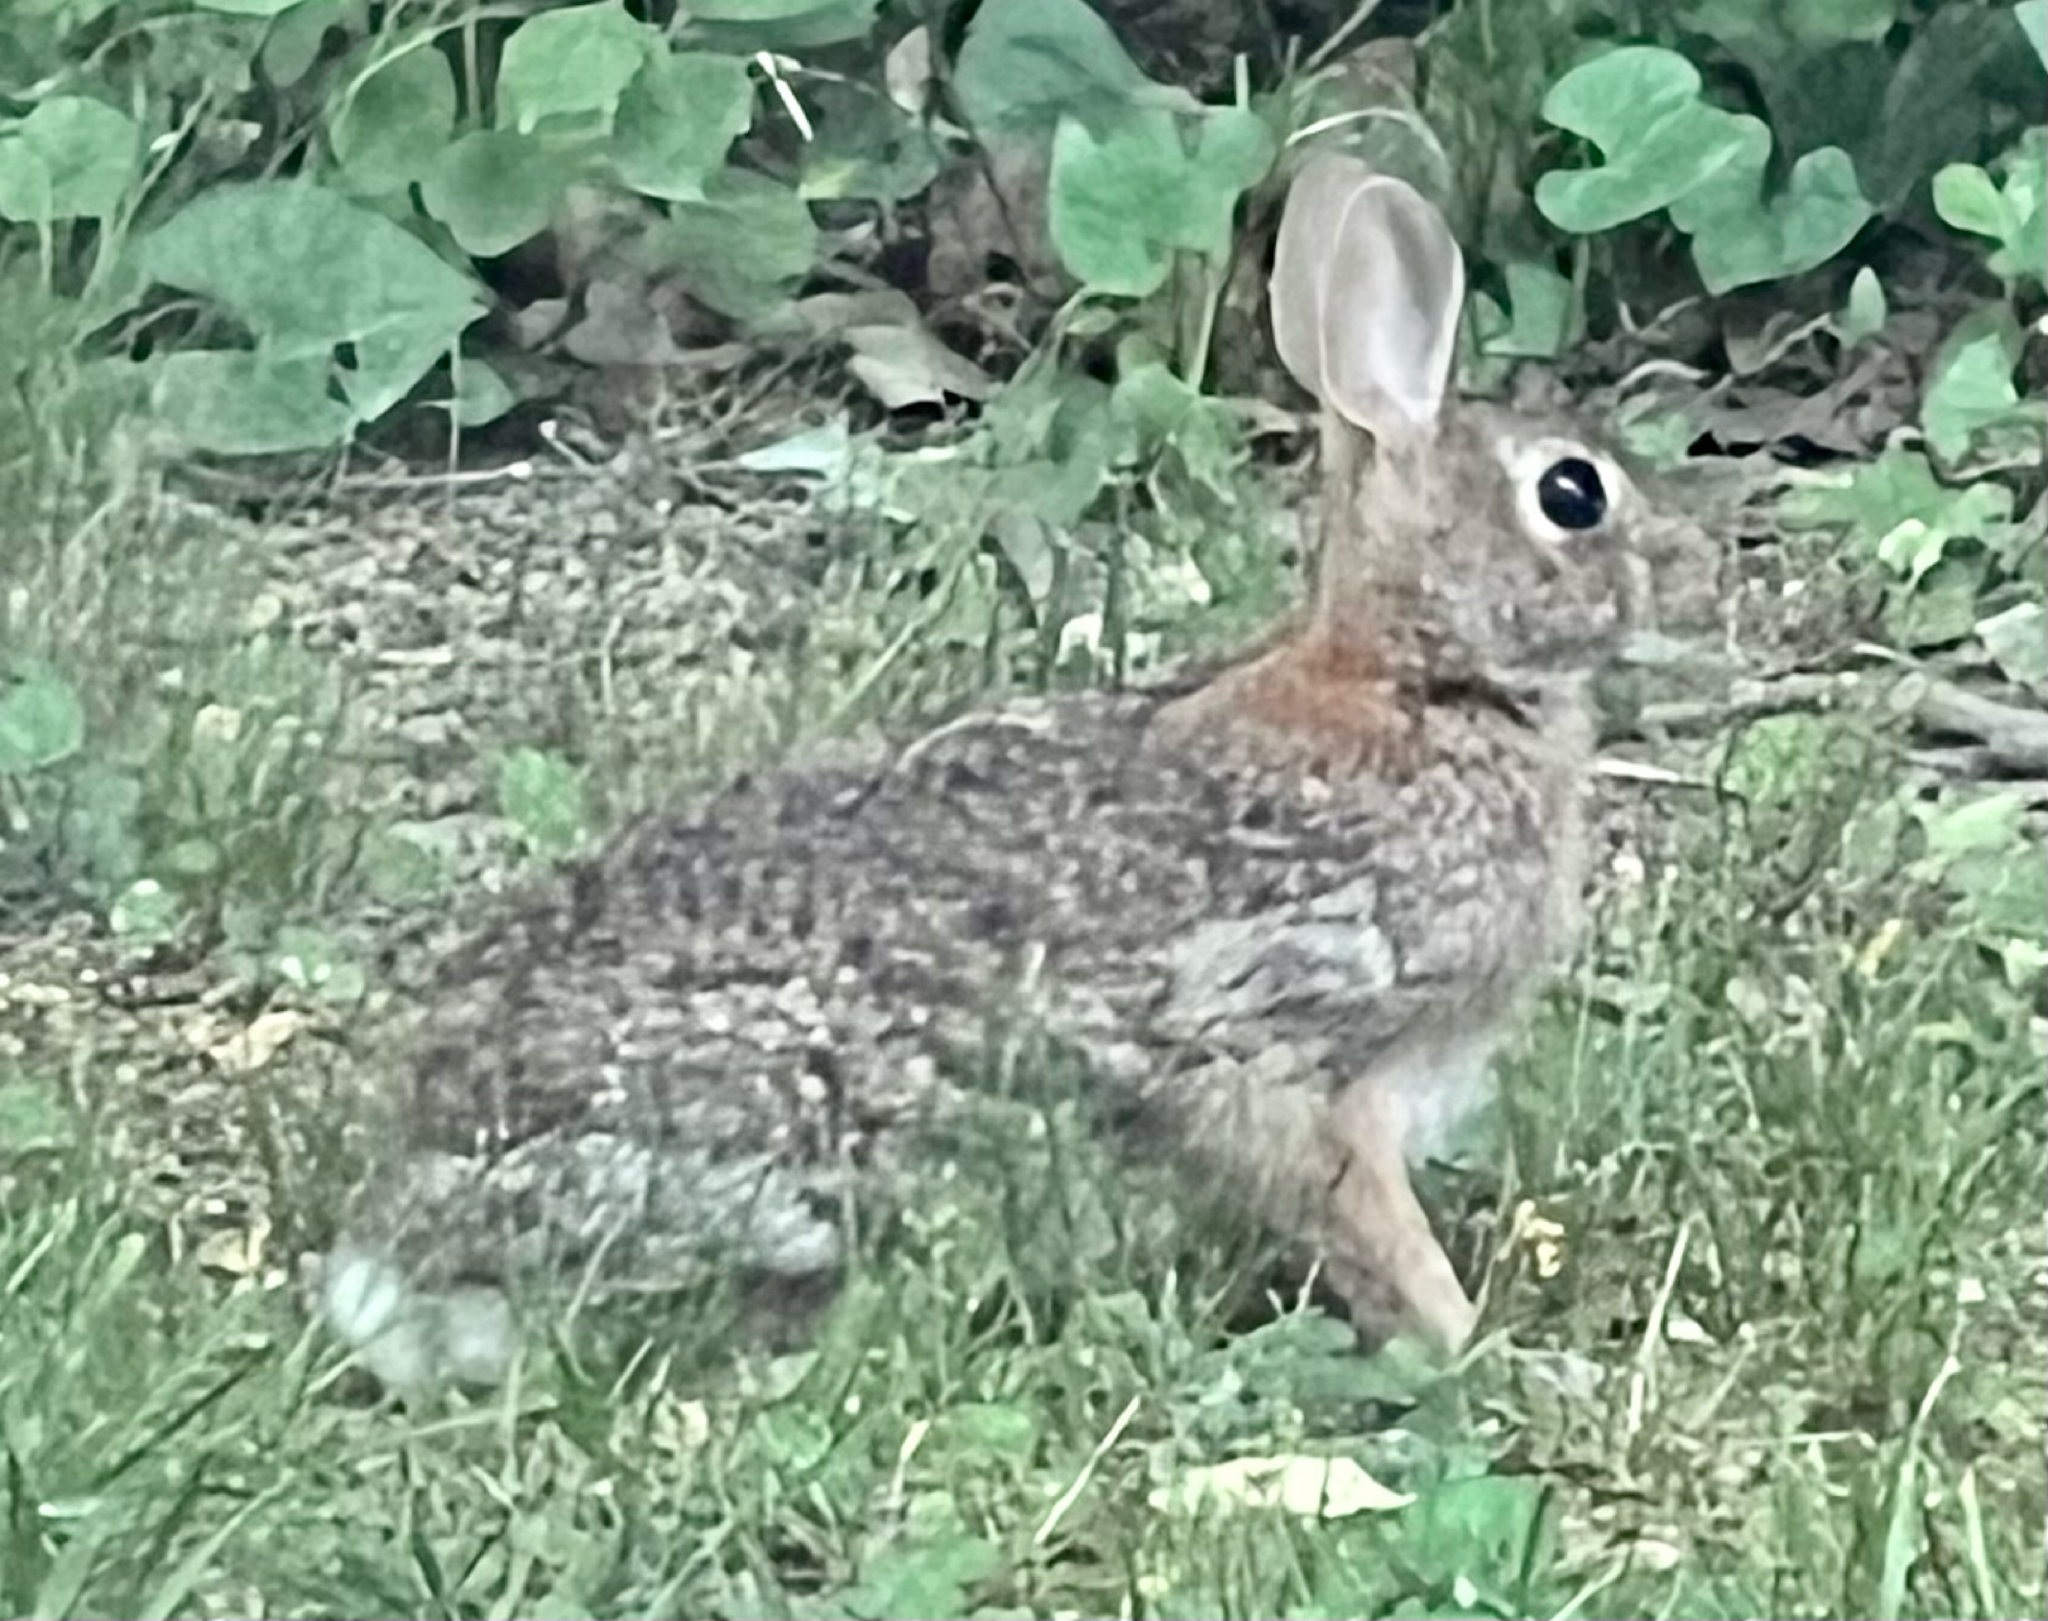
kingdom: Animalia
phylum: Chordata
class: Mammalia
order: Lagomorpha
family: Leporidae
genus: Sylvilagus
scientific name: Sylvilagus floridanus
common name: Eastern cottontail
